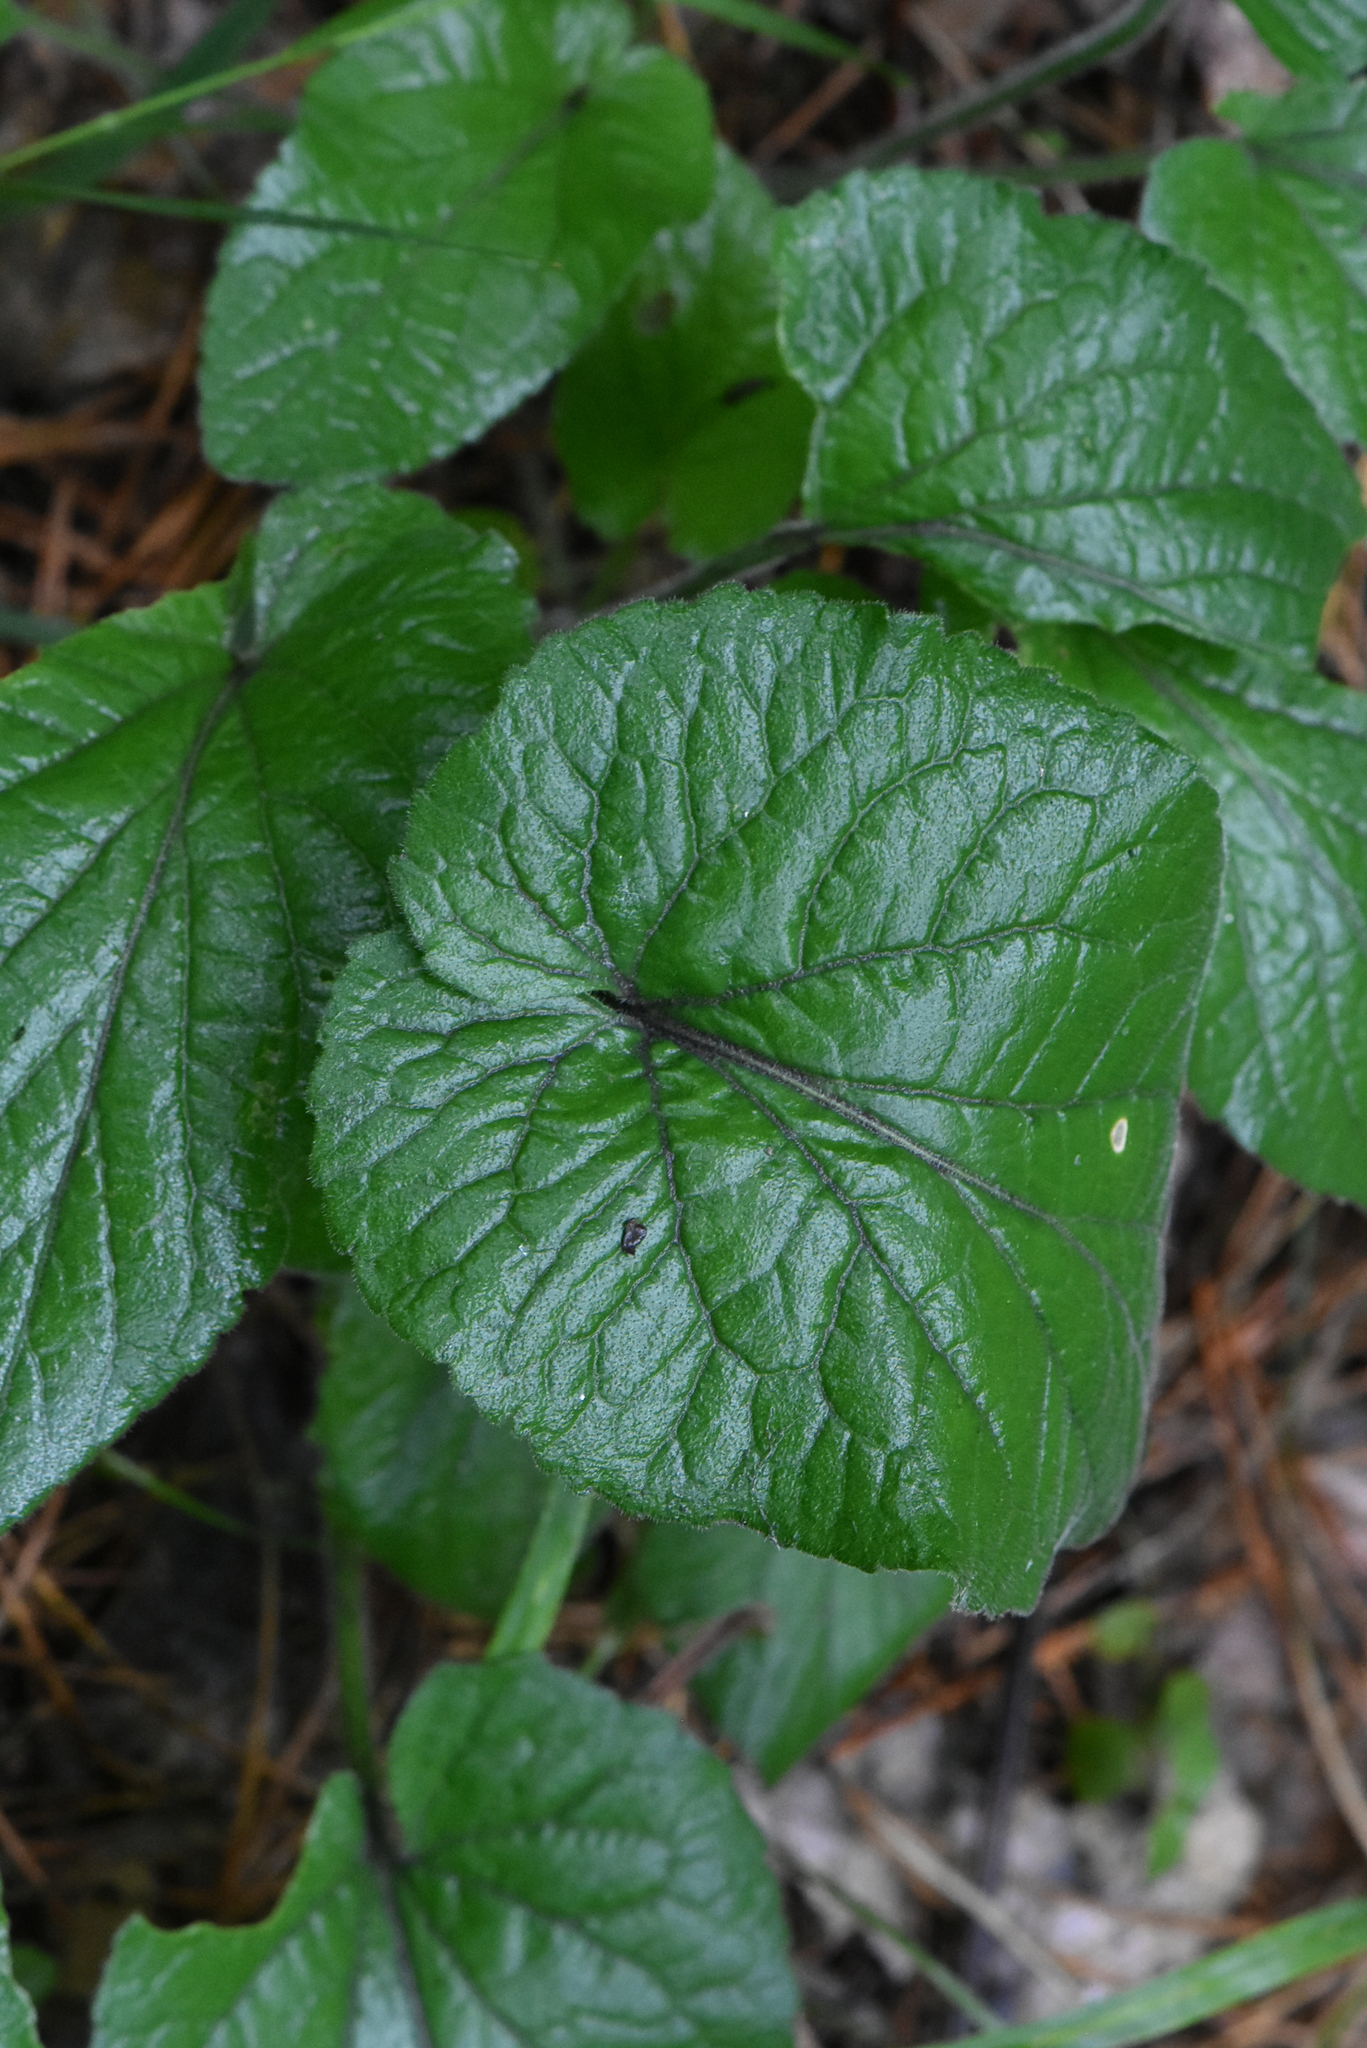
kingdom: Plantae
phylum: Tracheophyta
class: Magnoliopsida
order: Malpighiales
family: Violaceae
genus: Viola
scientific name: Viola hirta
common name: Hairy violet
